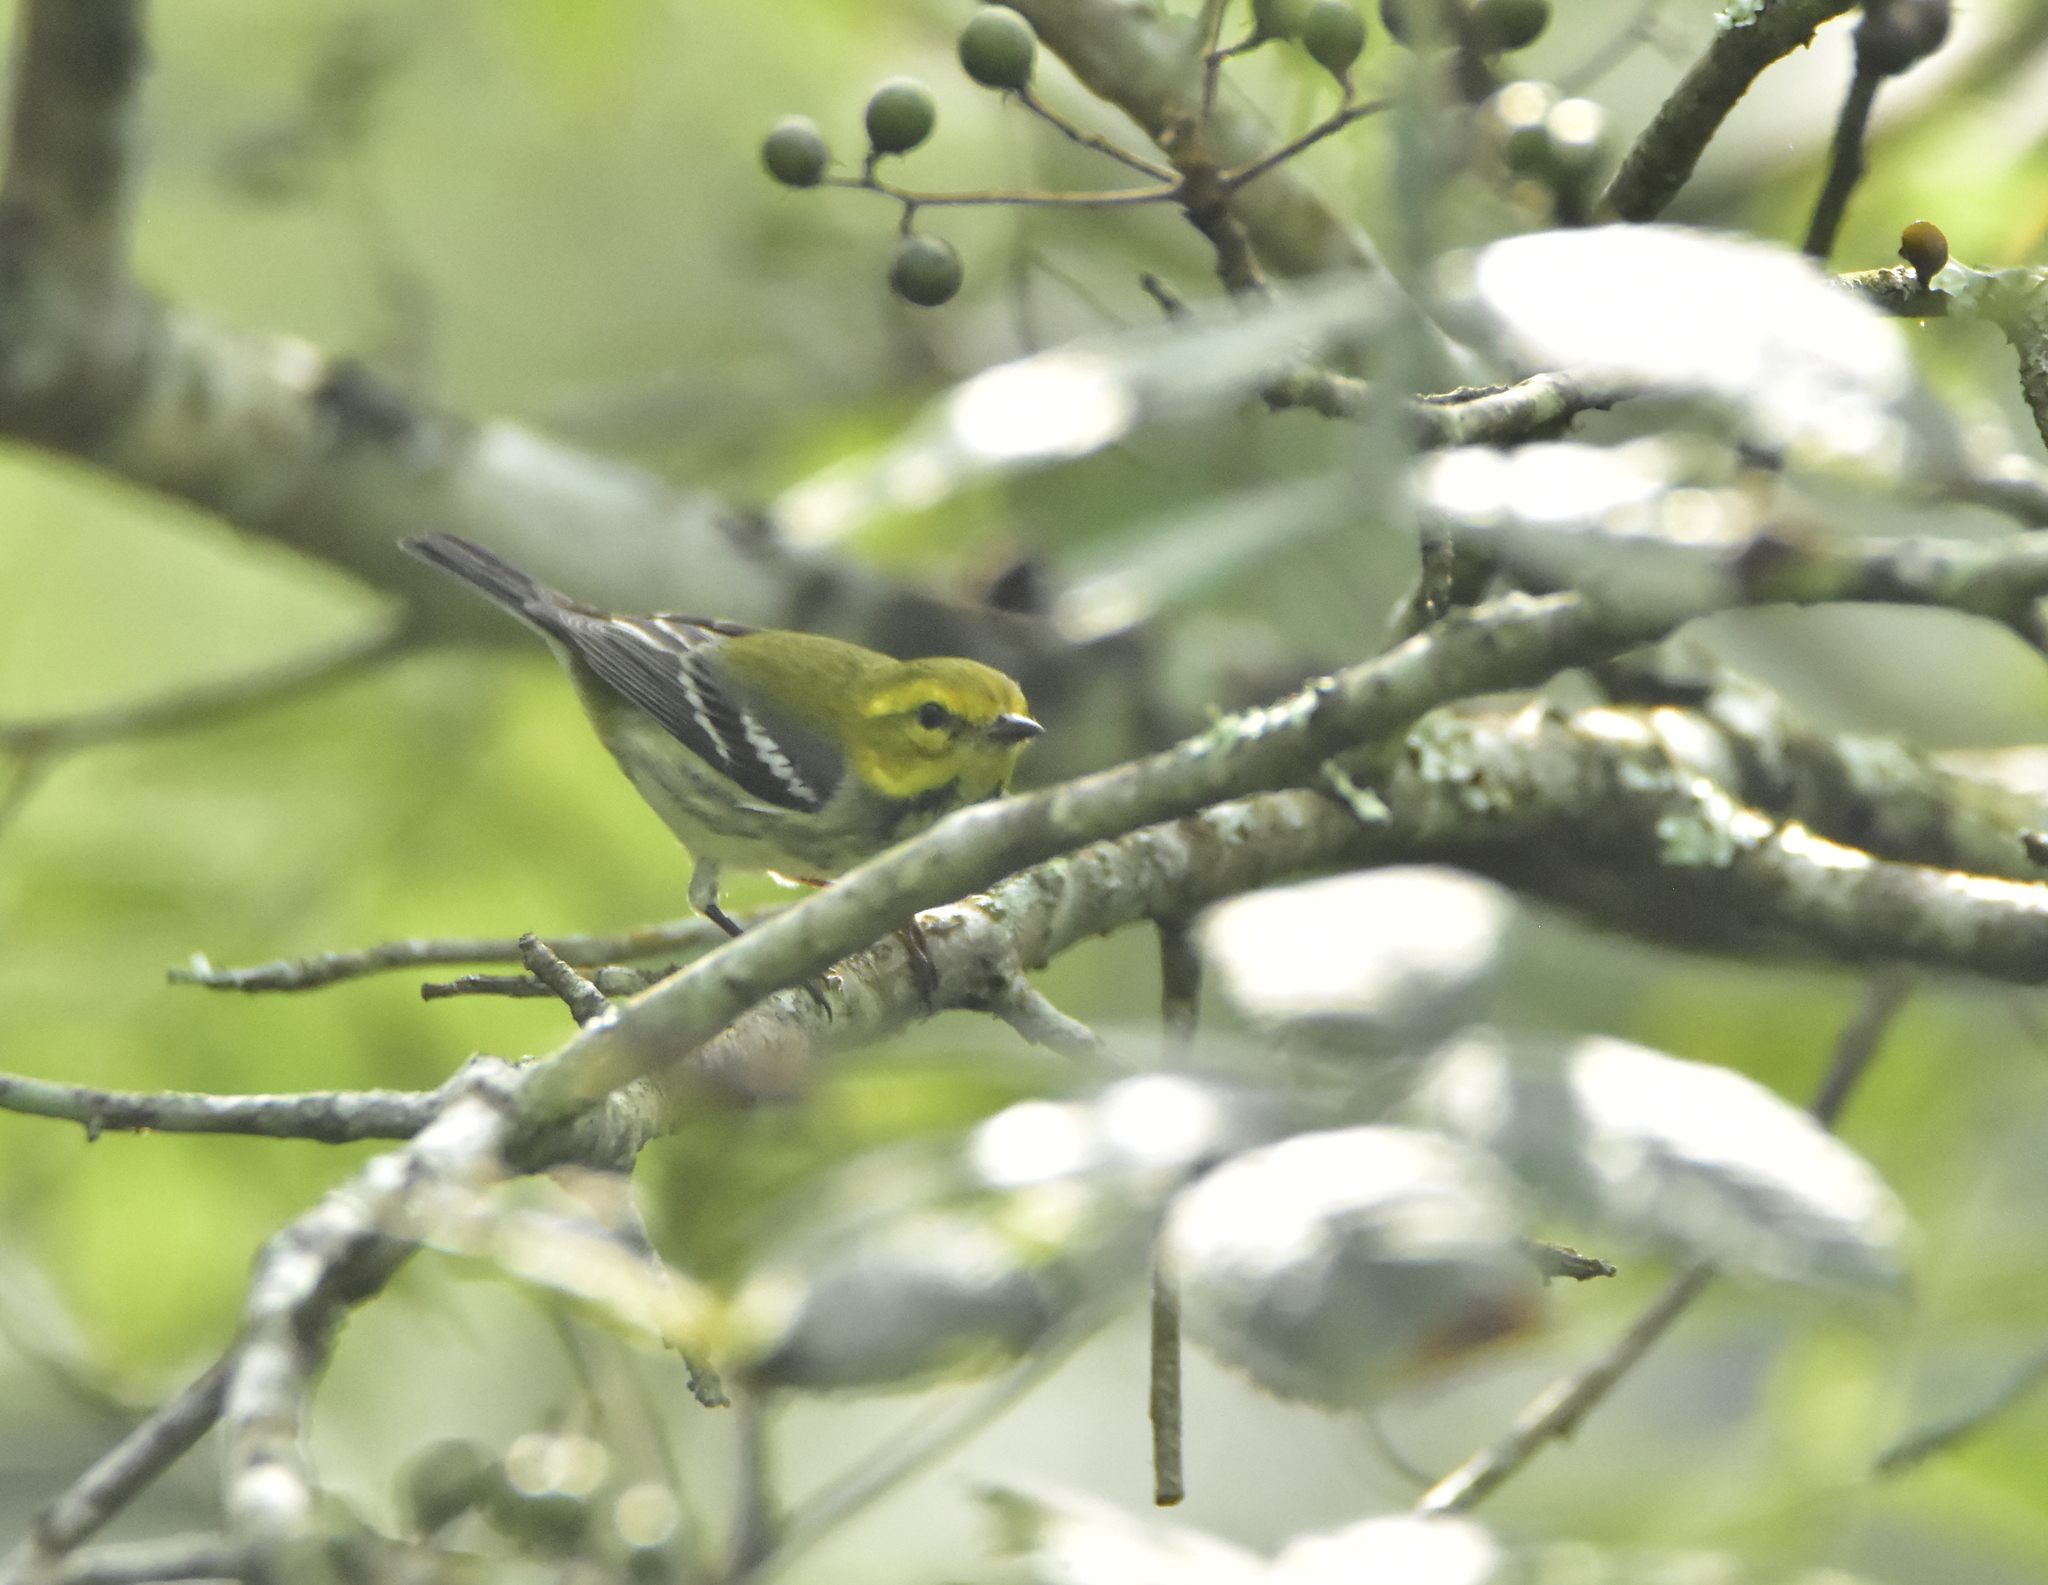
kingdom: Animalia
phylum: Chordata
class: Aves
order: Passeriformes
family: Parulidae
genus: Setophaga
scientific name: Setophaga virens
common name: Black-throated green warbler
